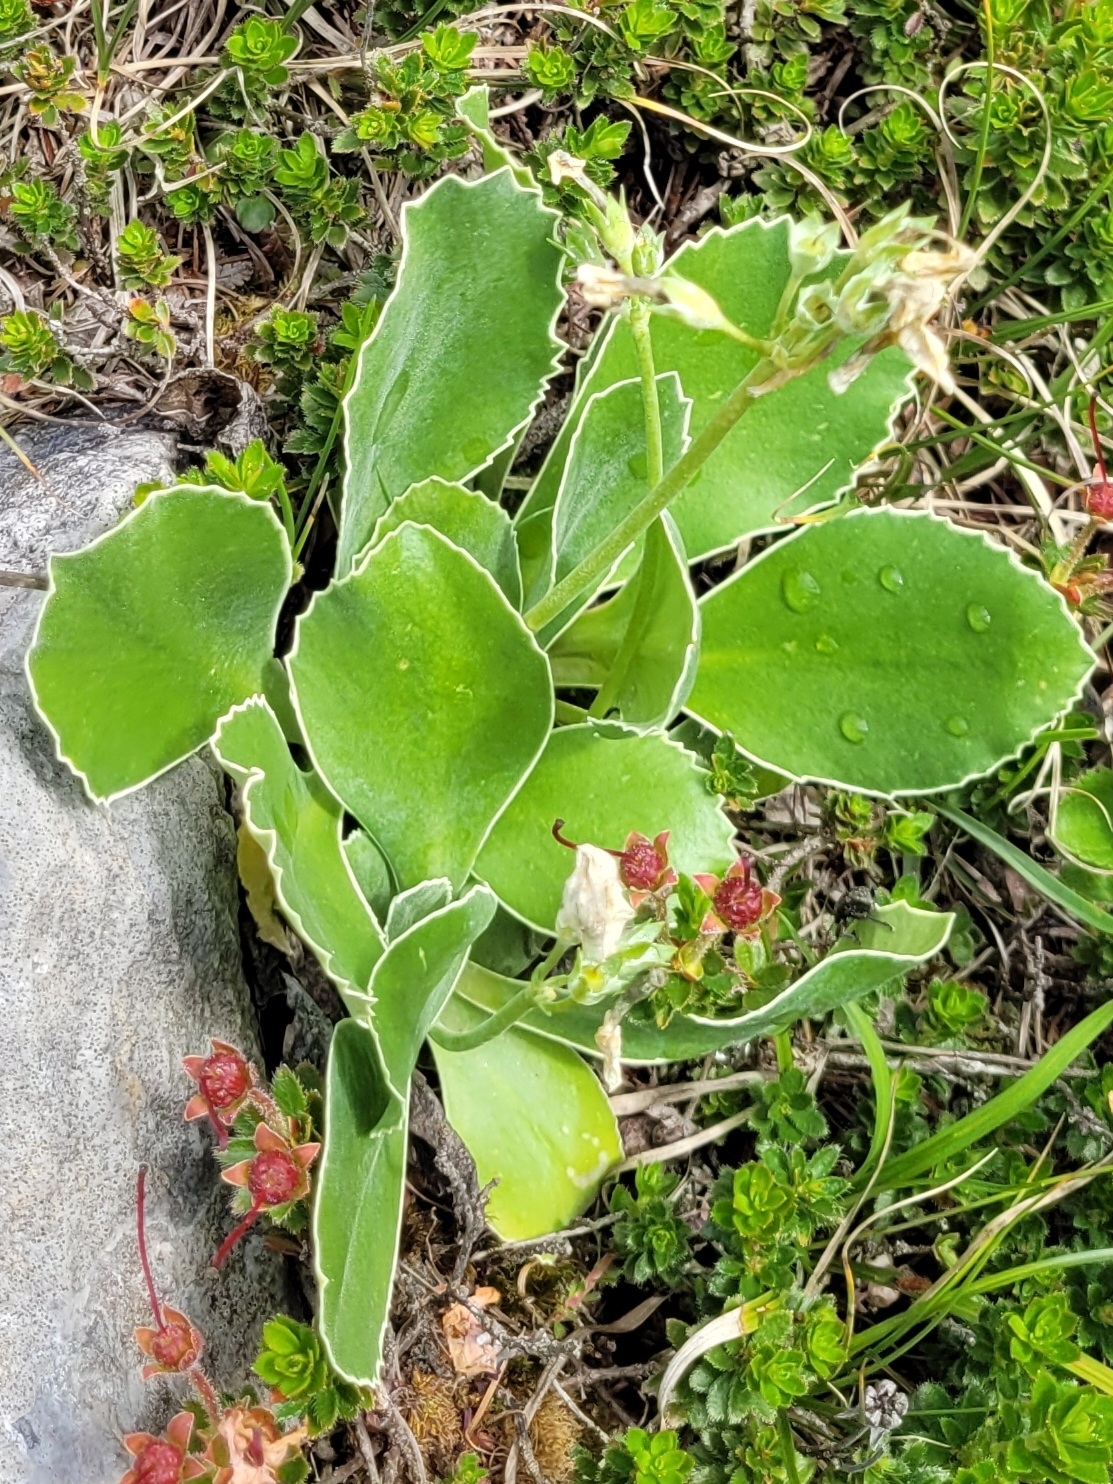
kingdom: Plantae
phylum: Tracheophyta
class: Magnoliopsida
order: Ericales
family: Primulaceae
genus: Primula
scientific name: Primula auricula
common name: Auricula
